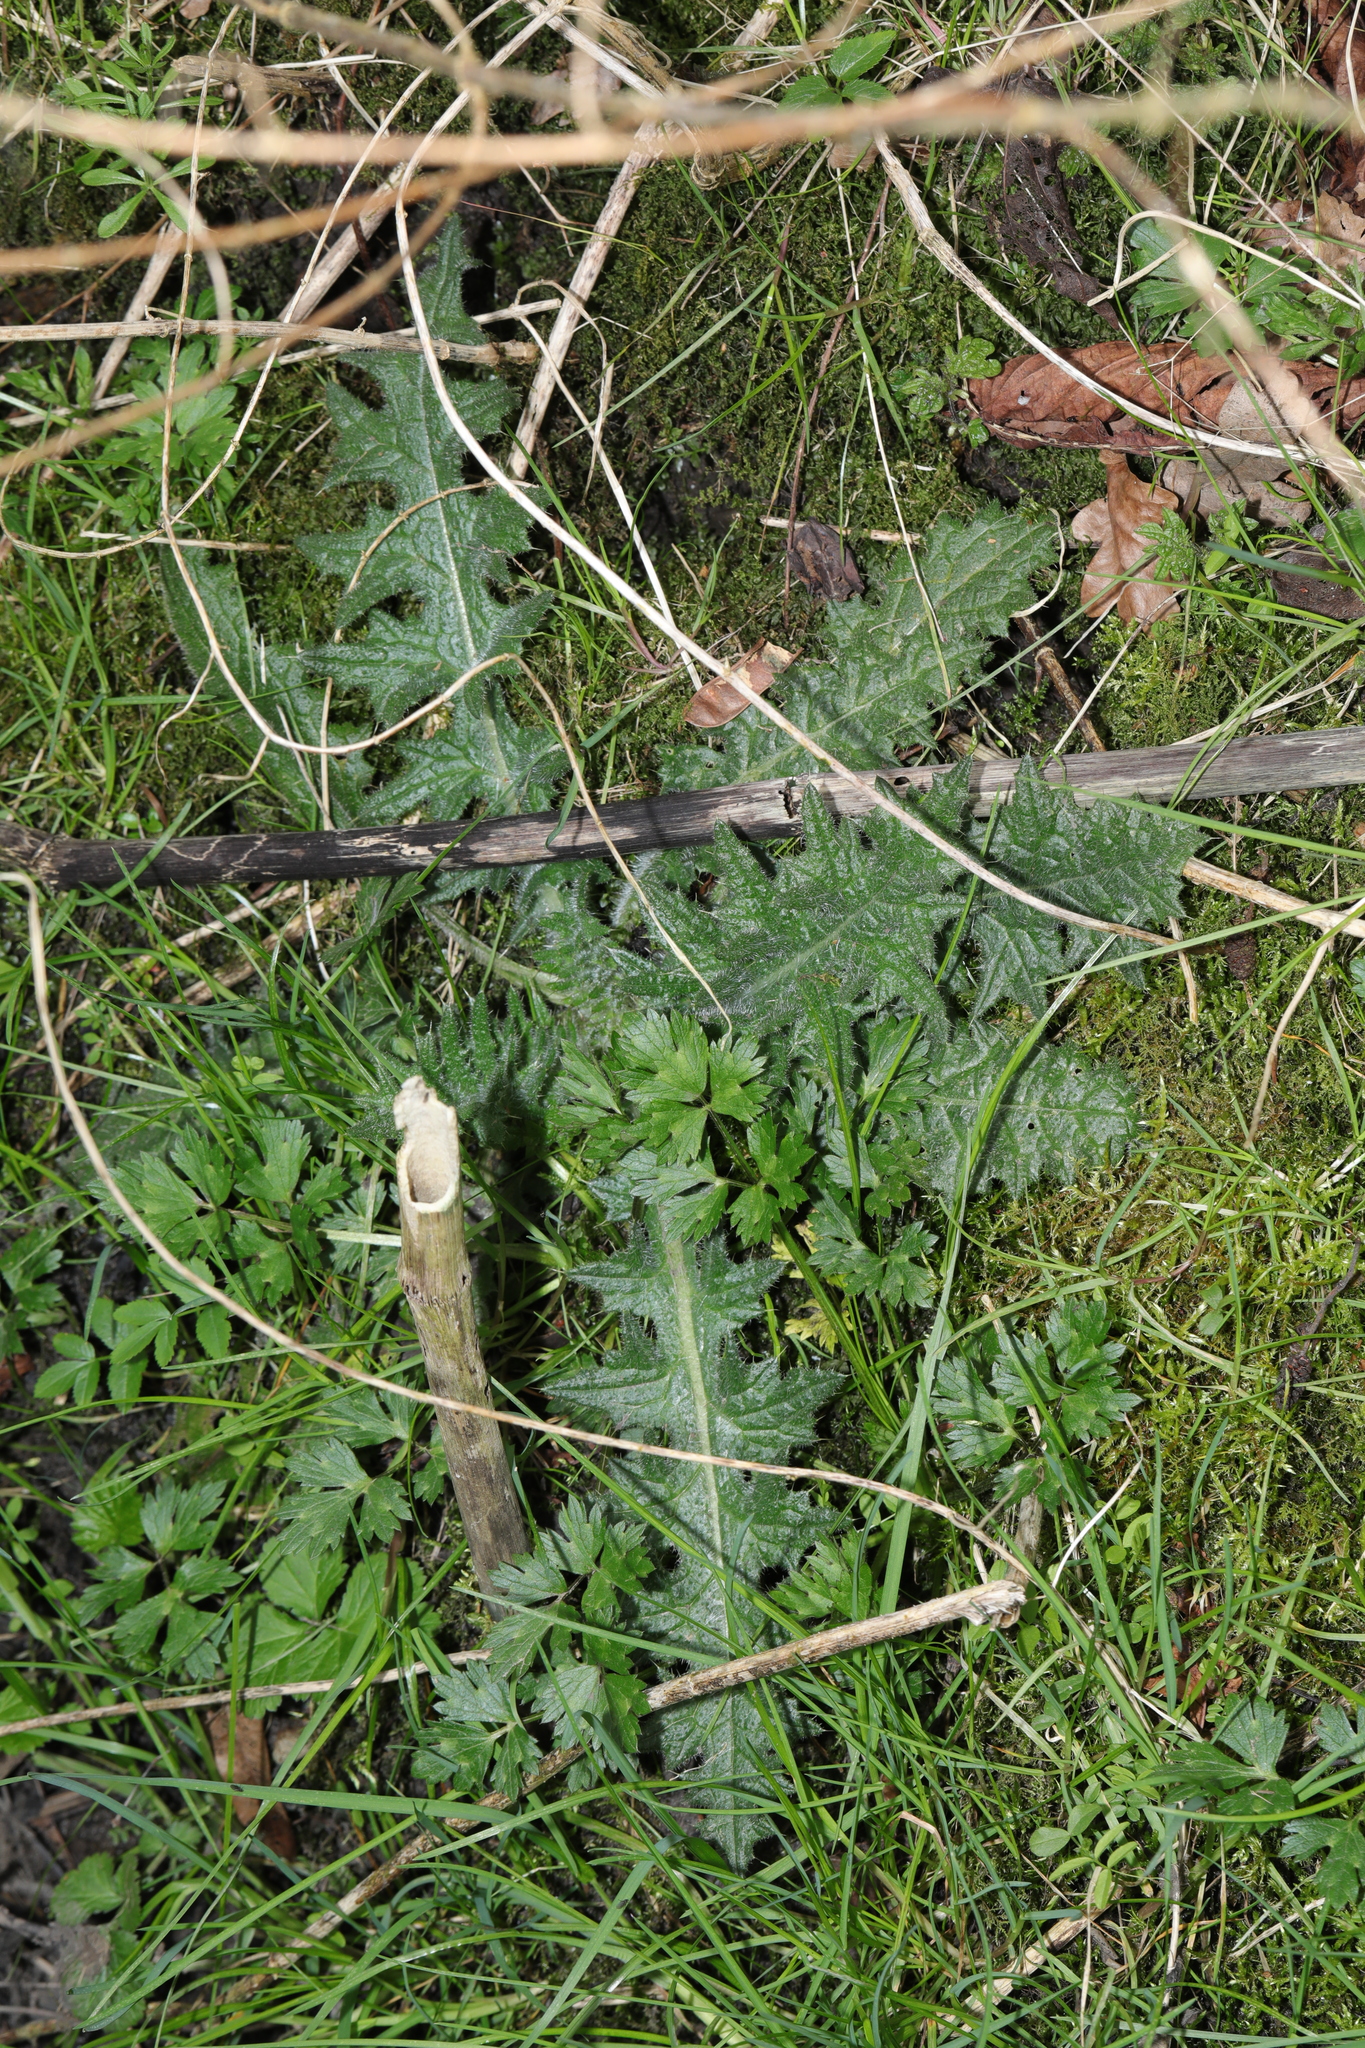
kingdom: Plantae
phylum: Tracheophyta
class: Magnoliopsida
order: Asterales
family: Asteraceae
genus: Cirsium
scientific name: Cirsium vulgare
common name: Bull thistle
